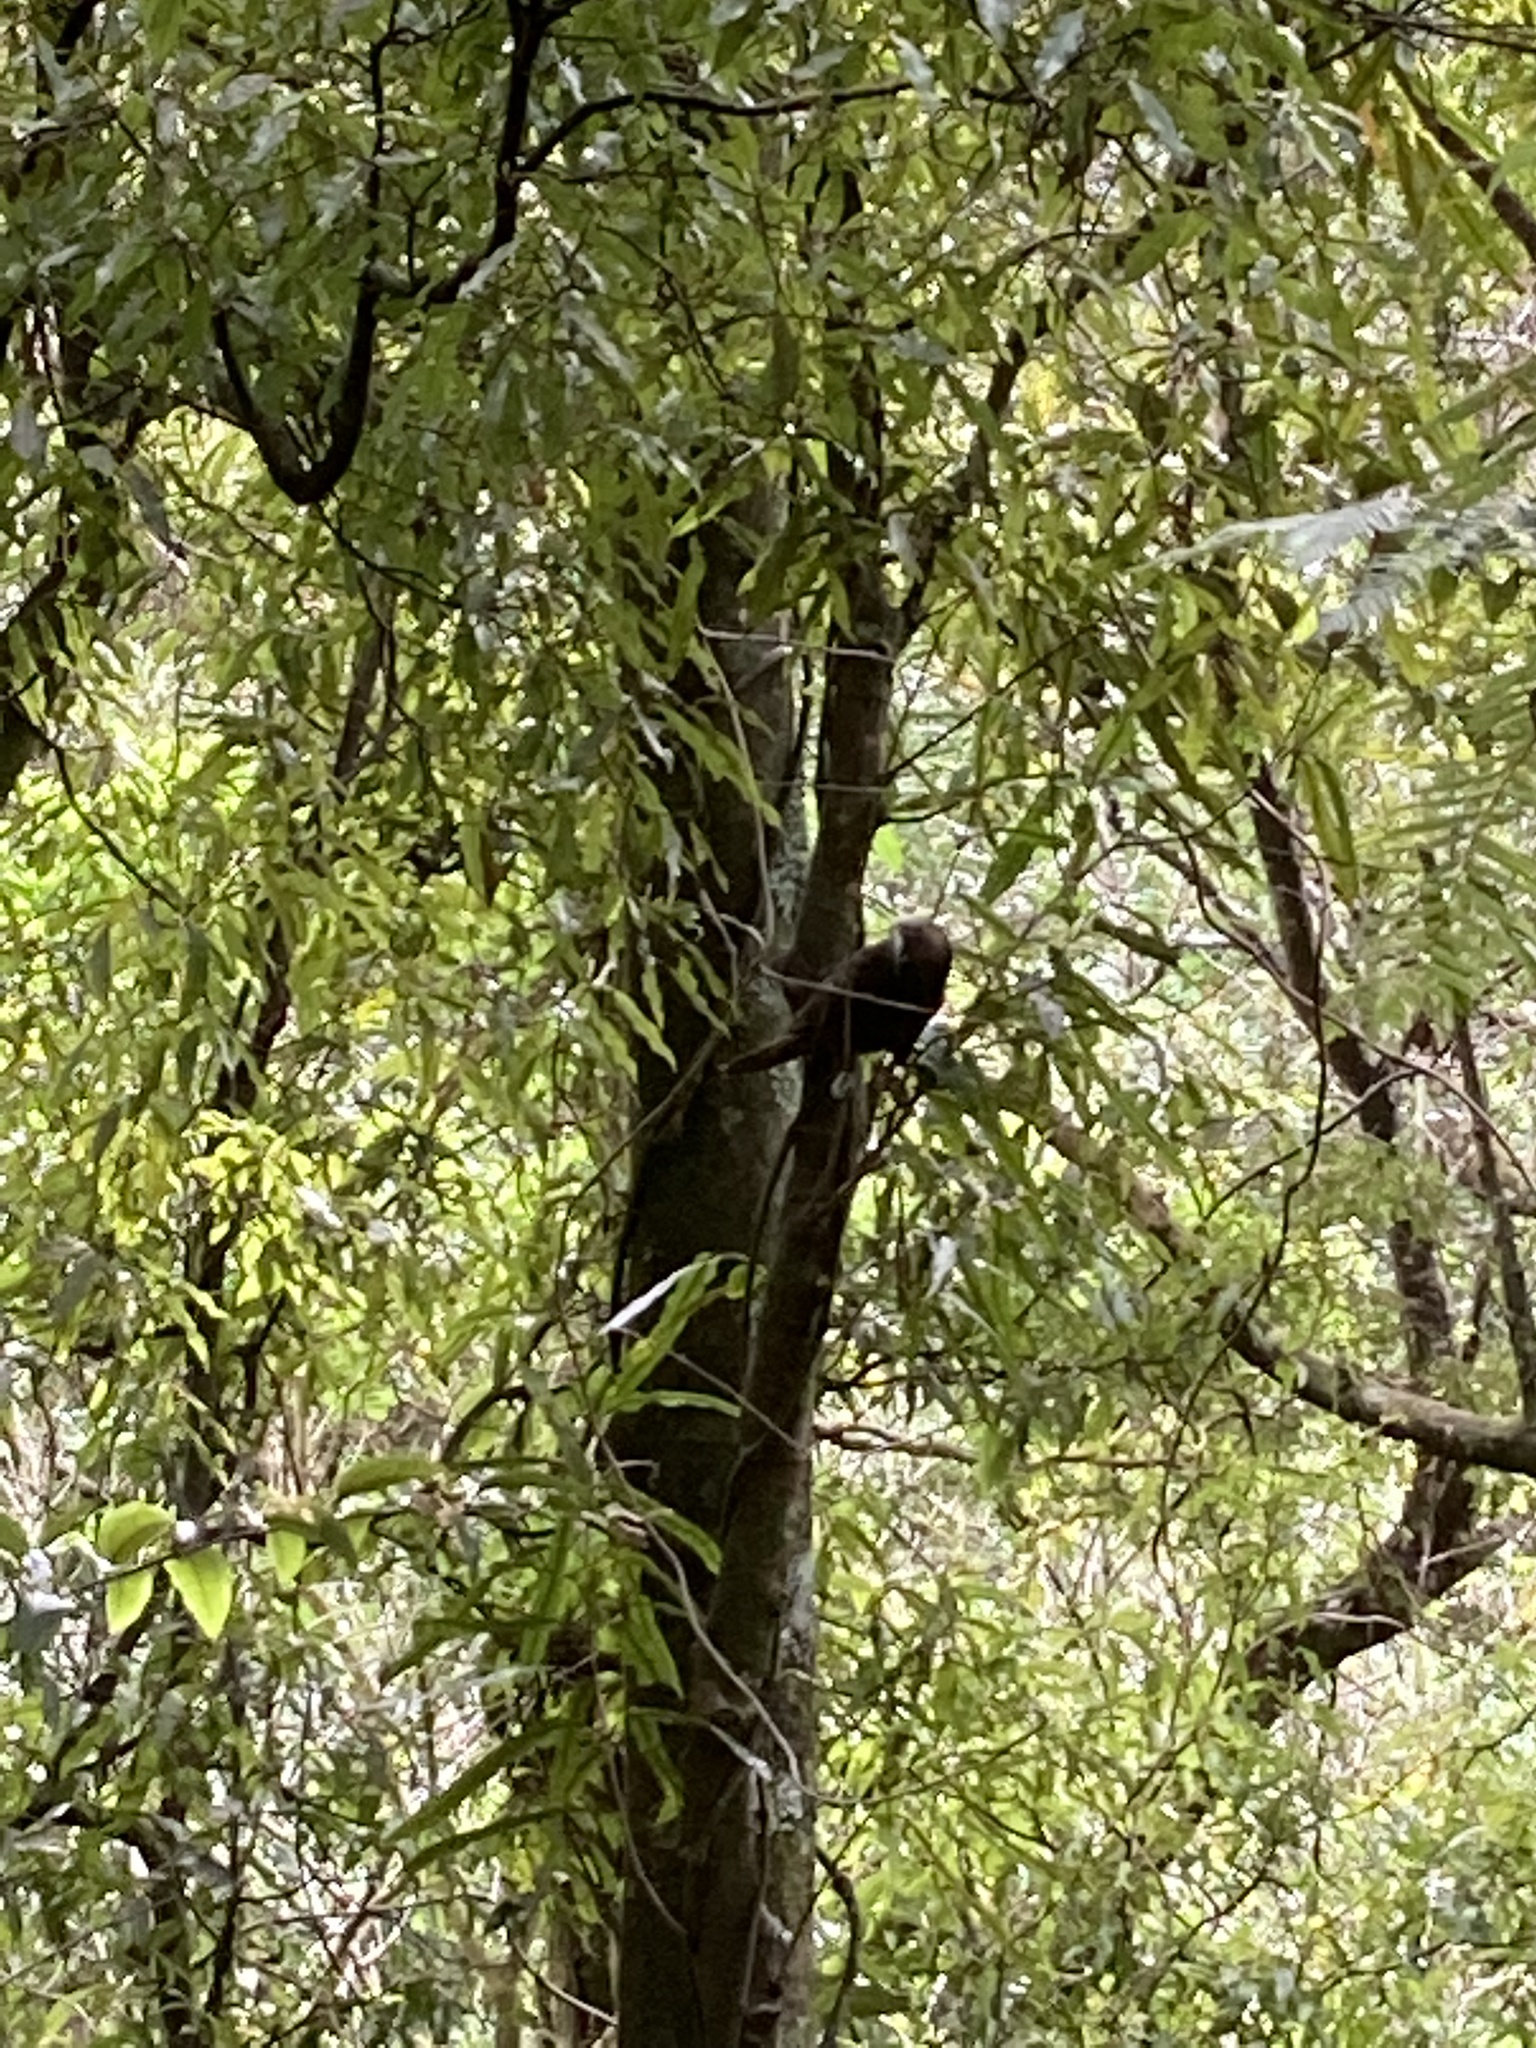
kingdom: Animalia
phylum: Chordata
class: Aves
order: Psittaciformes
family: Psittacidae
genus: Nestor
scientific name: Nestor meridionalis
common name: New zealand kaka
